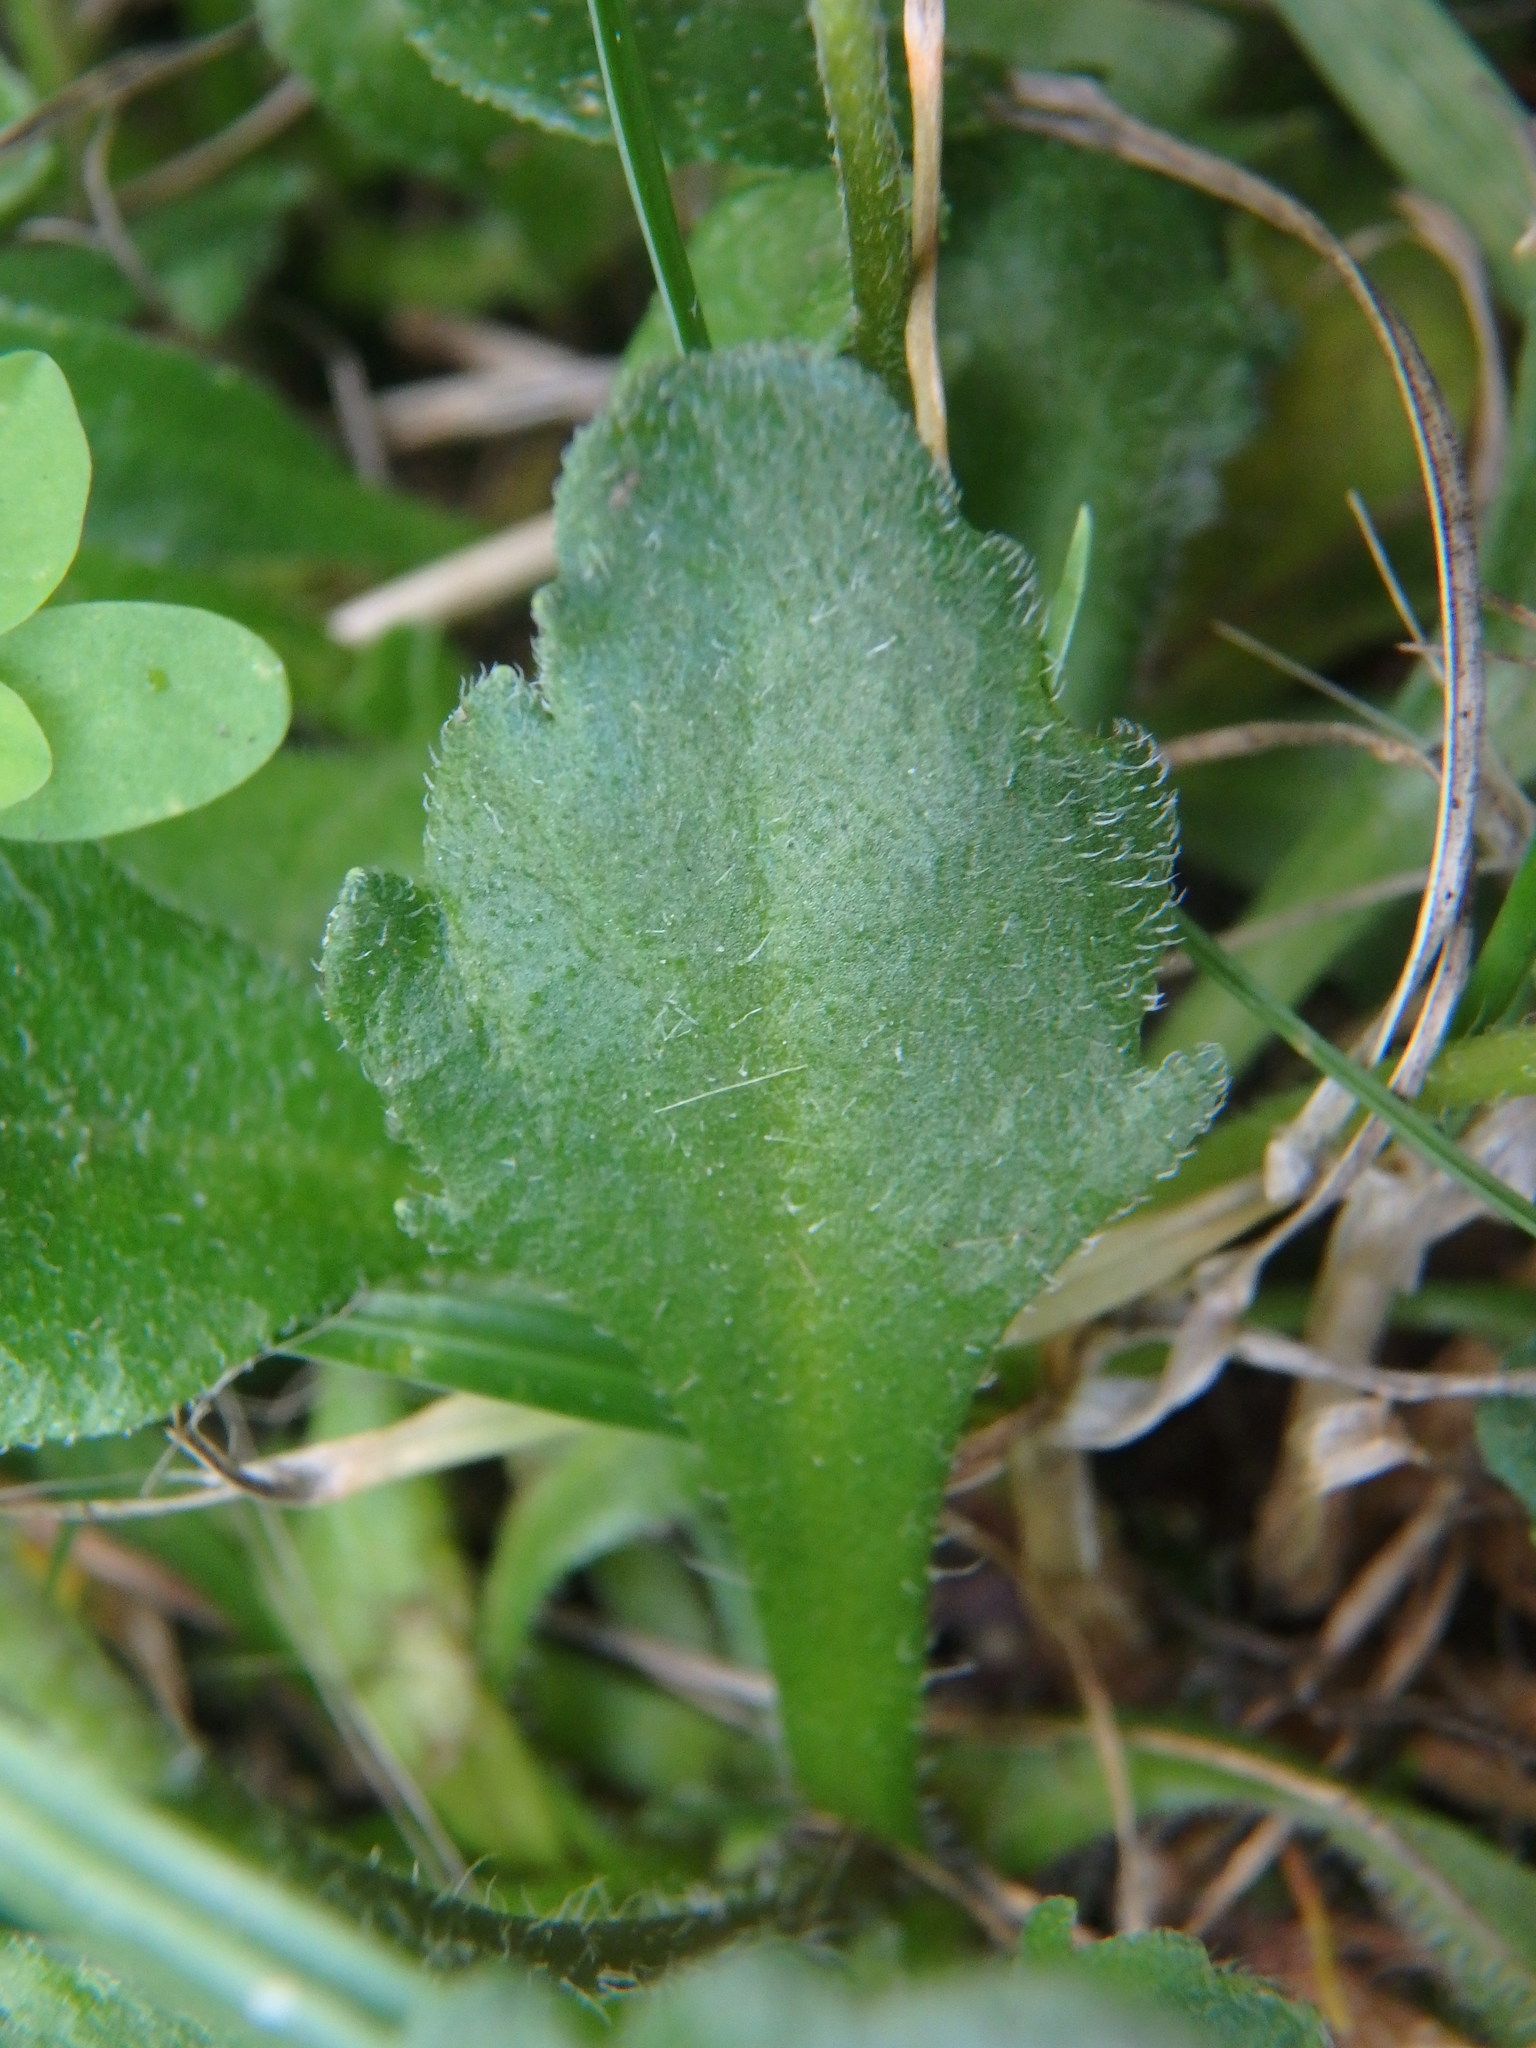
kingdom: Plantae
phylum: Tracheophyta
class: Magnoliopsida
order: Asterales
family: Asteraceae
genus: Bellis
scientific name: Bellis perennis
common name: Lawndaisy
